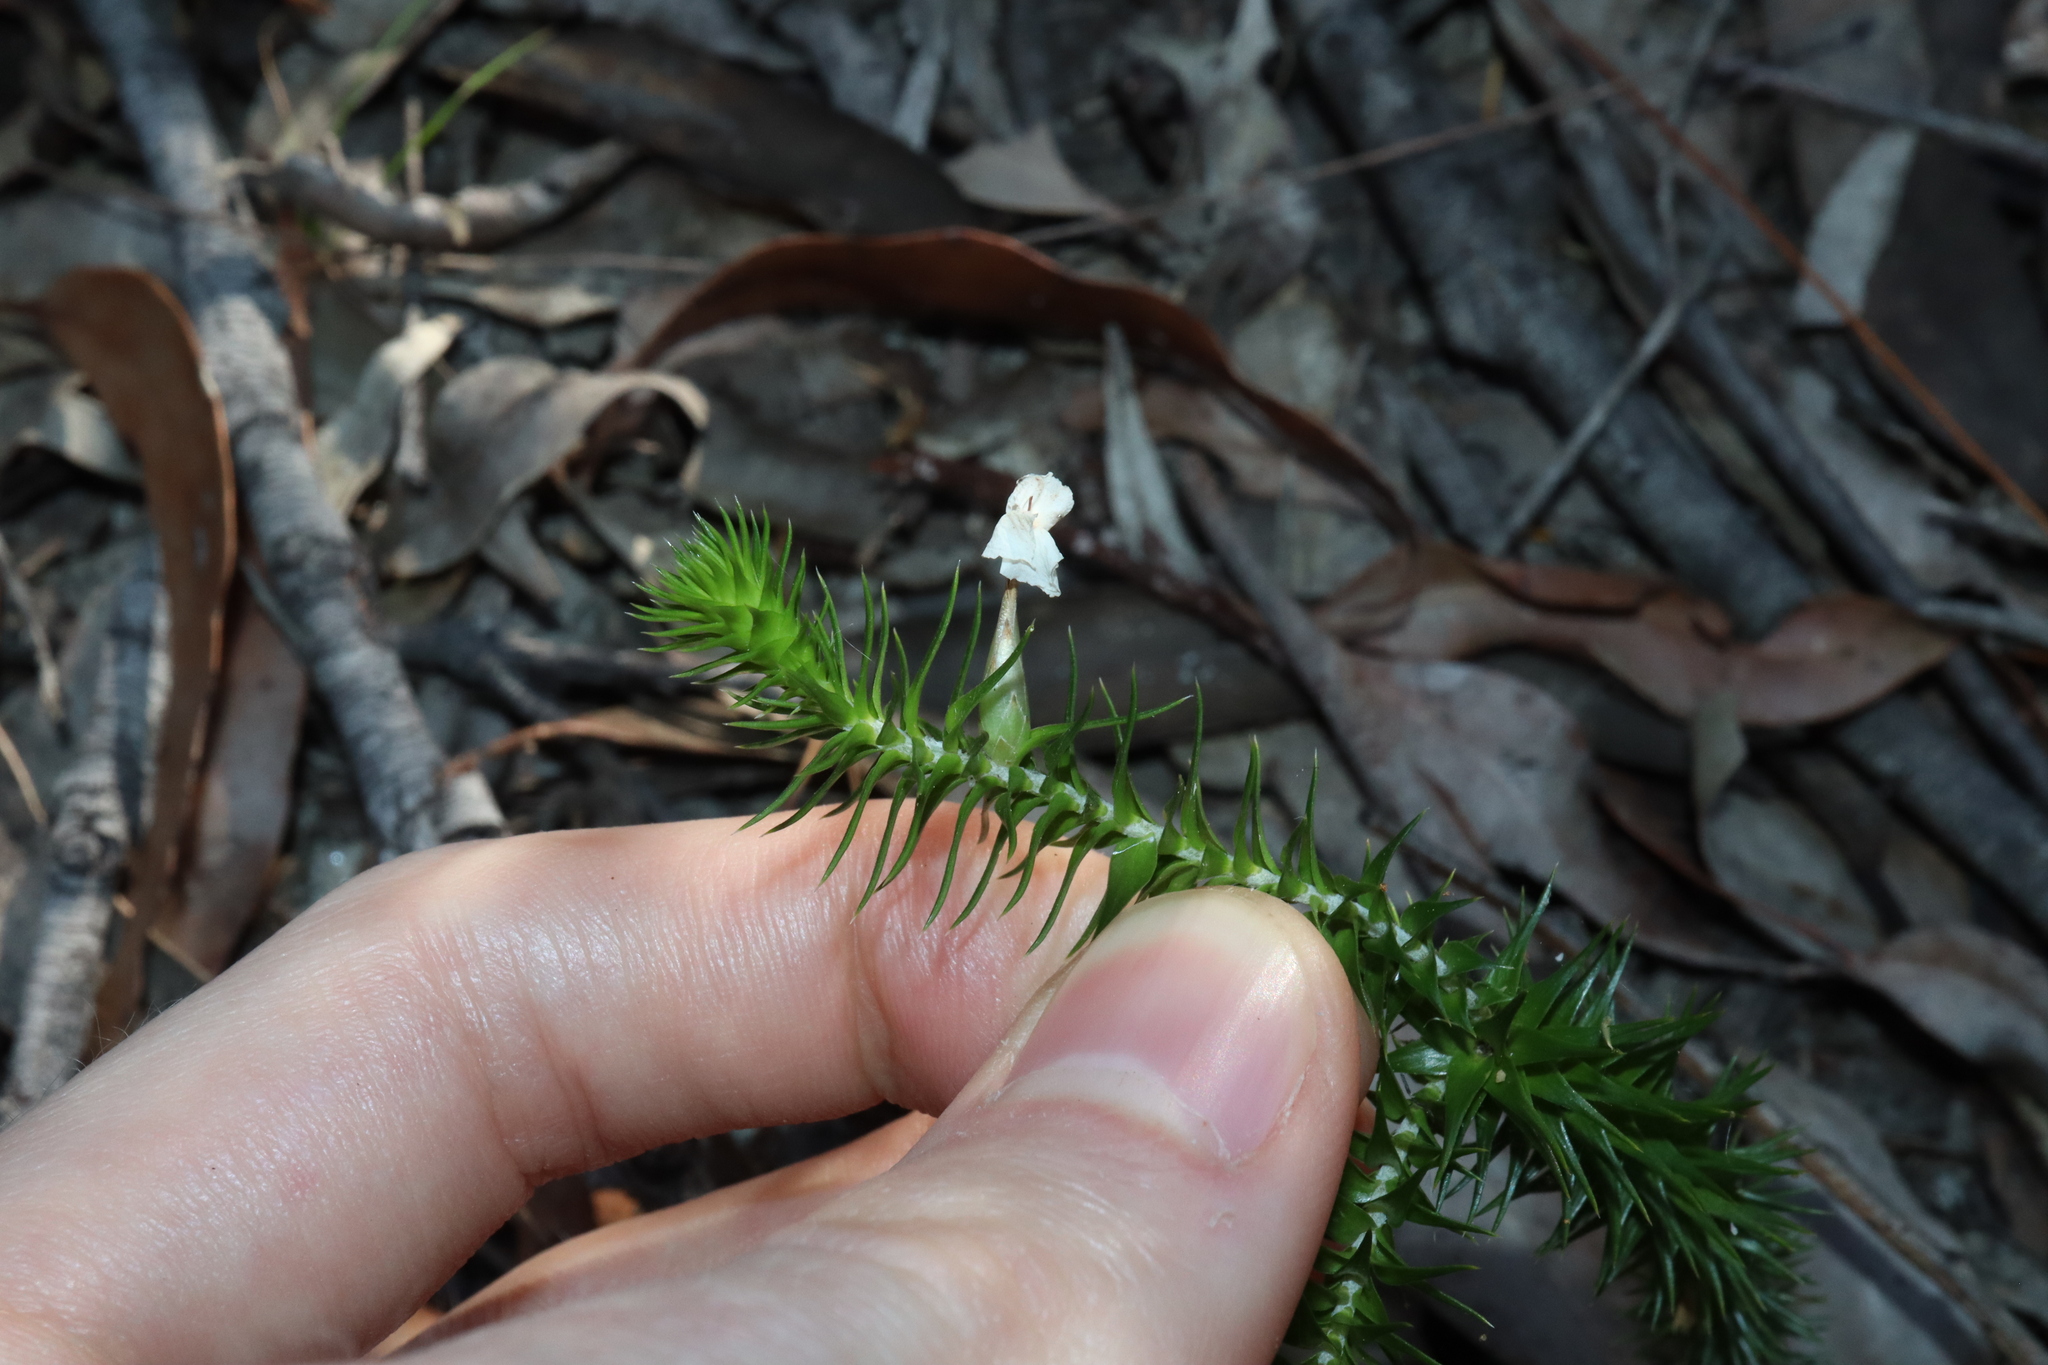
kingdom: Plantae
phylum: Tracheophyta
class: Magnoliopsida
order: Ericales
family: Ericaceae
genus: Woollsia
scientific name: Woollsia pungens
